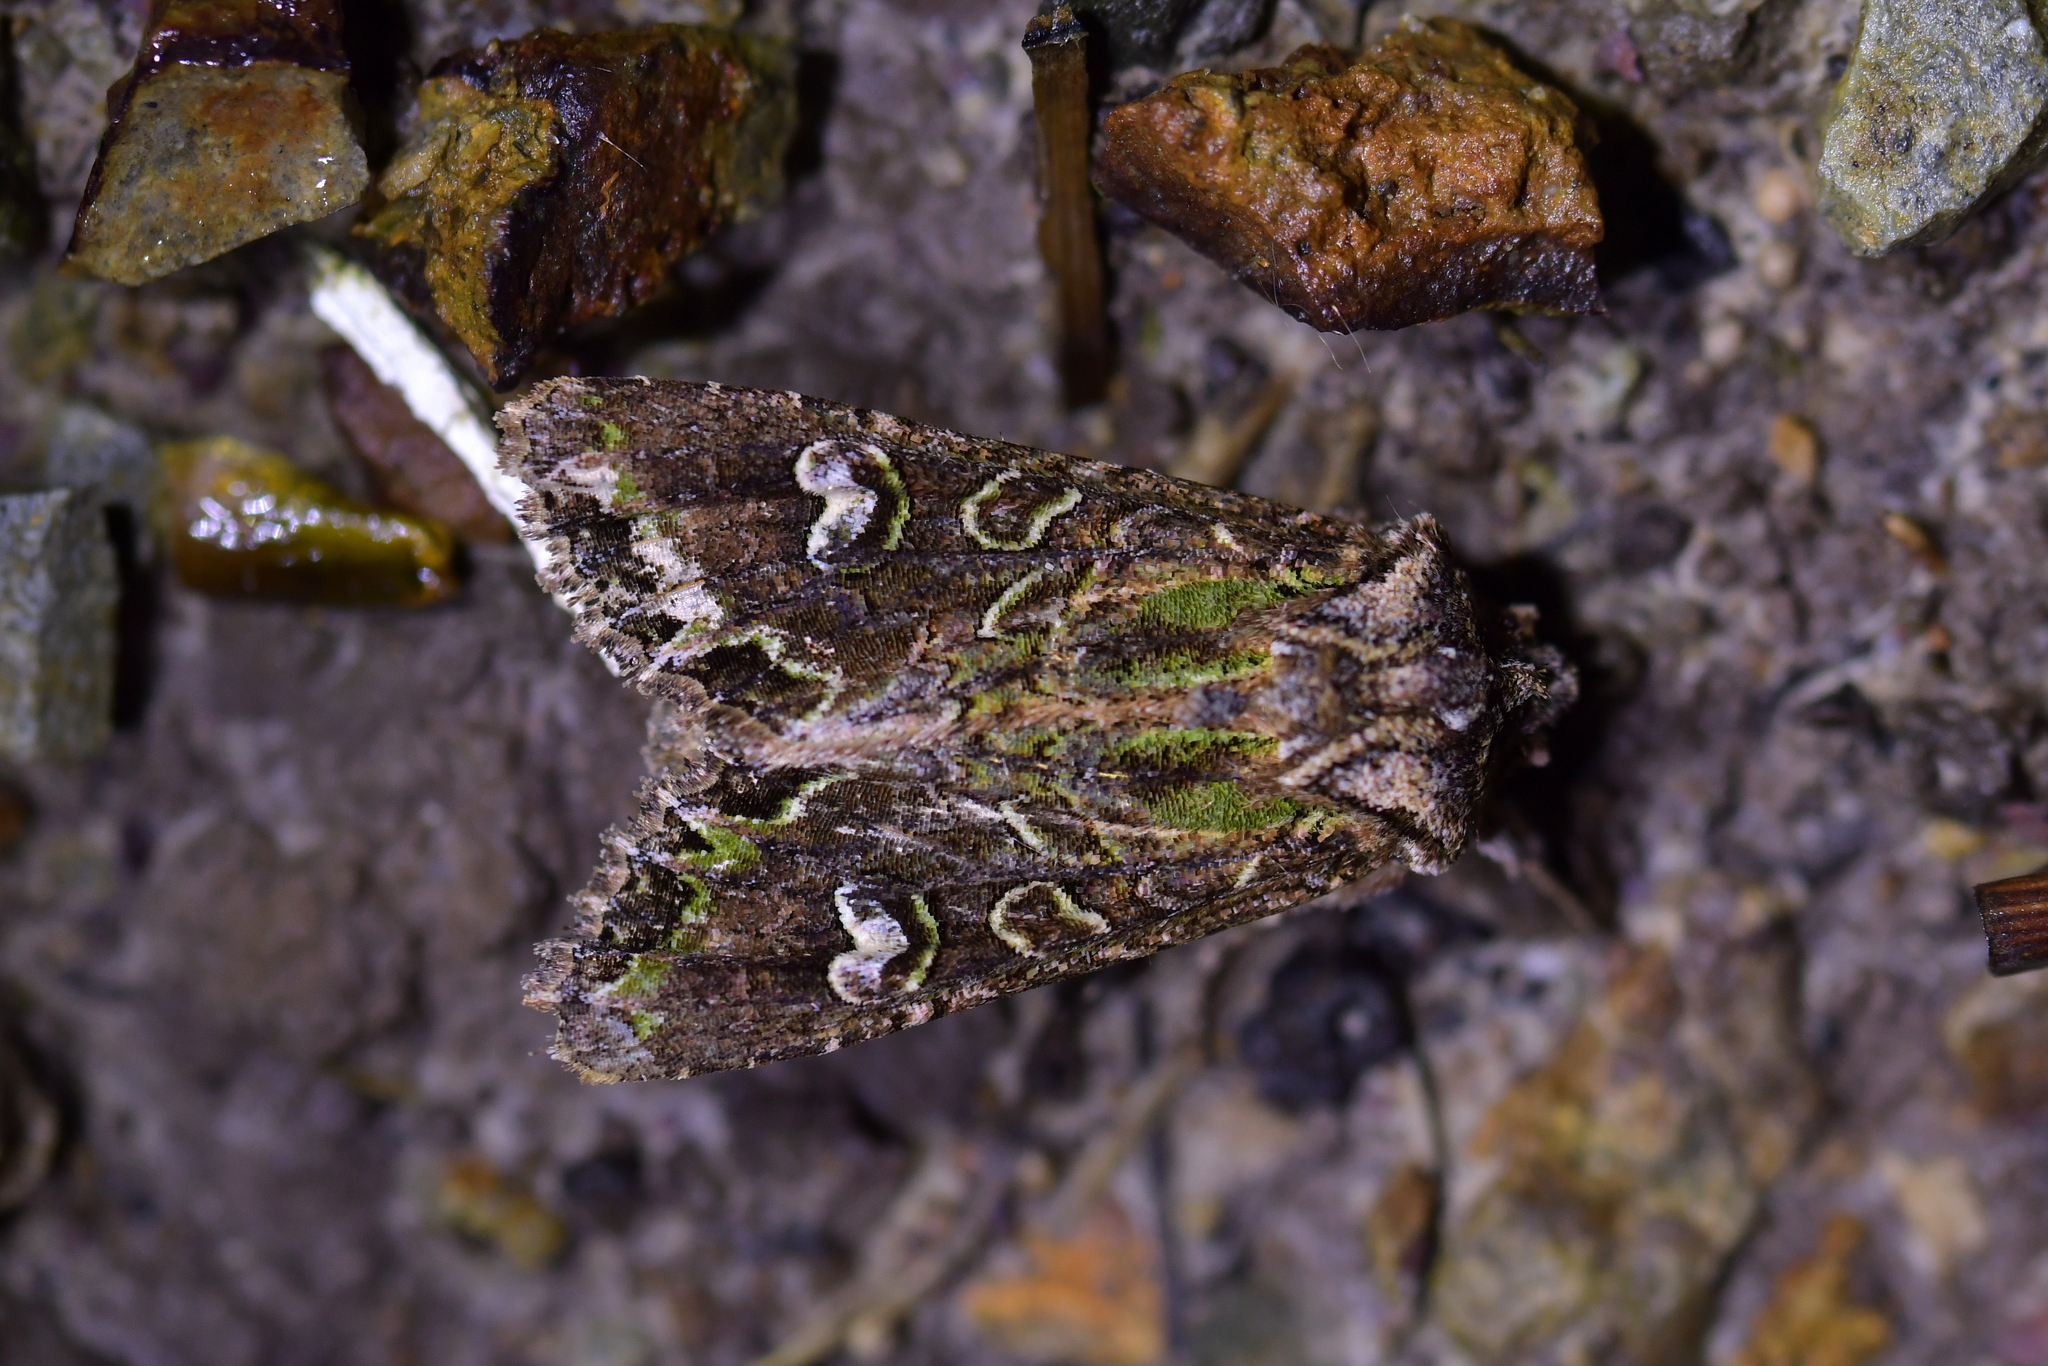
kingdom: Animalia
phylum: Arthropoda
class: Insecta
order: Lepidoptera
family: Noctuidae
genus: Ichneutica
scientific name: Ichneutica insignis
